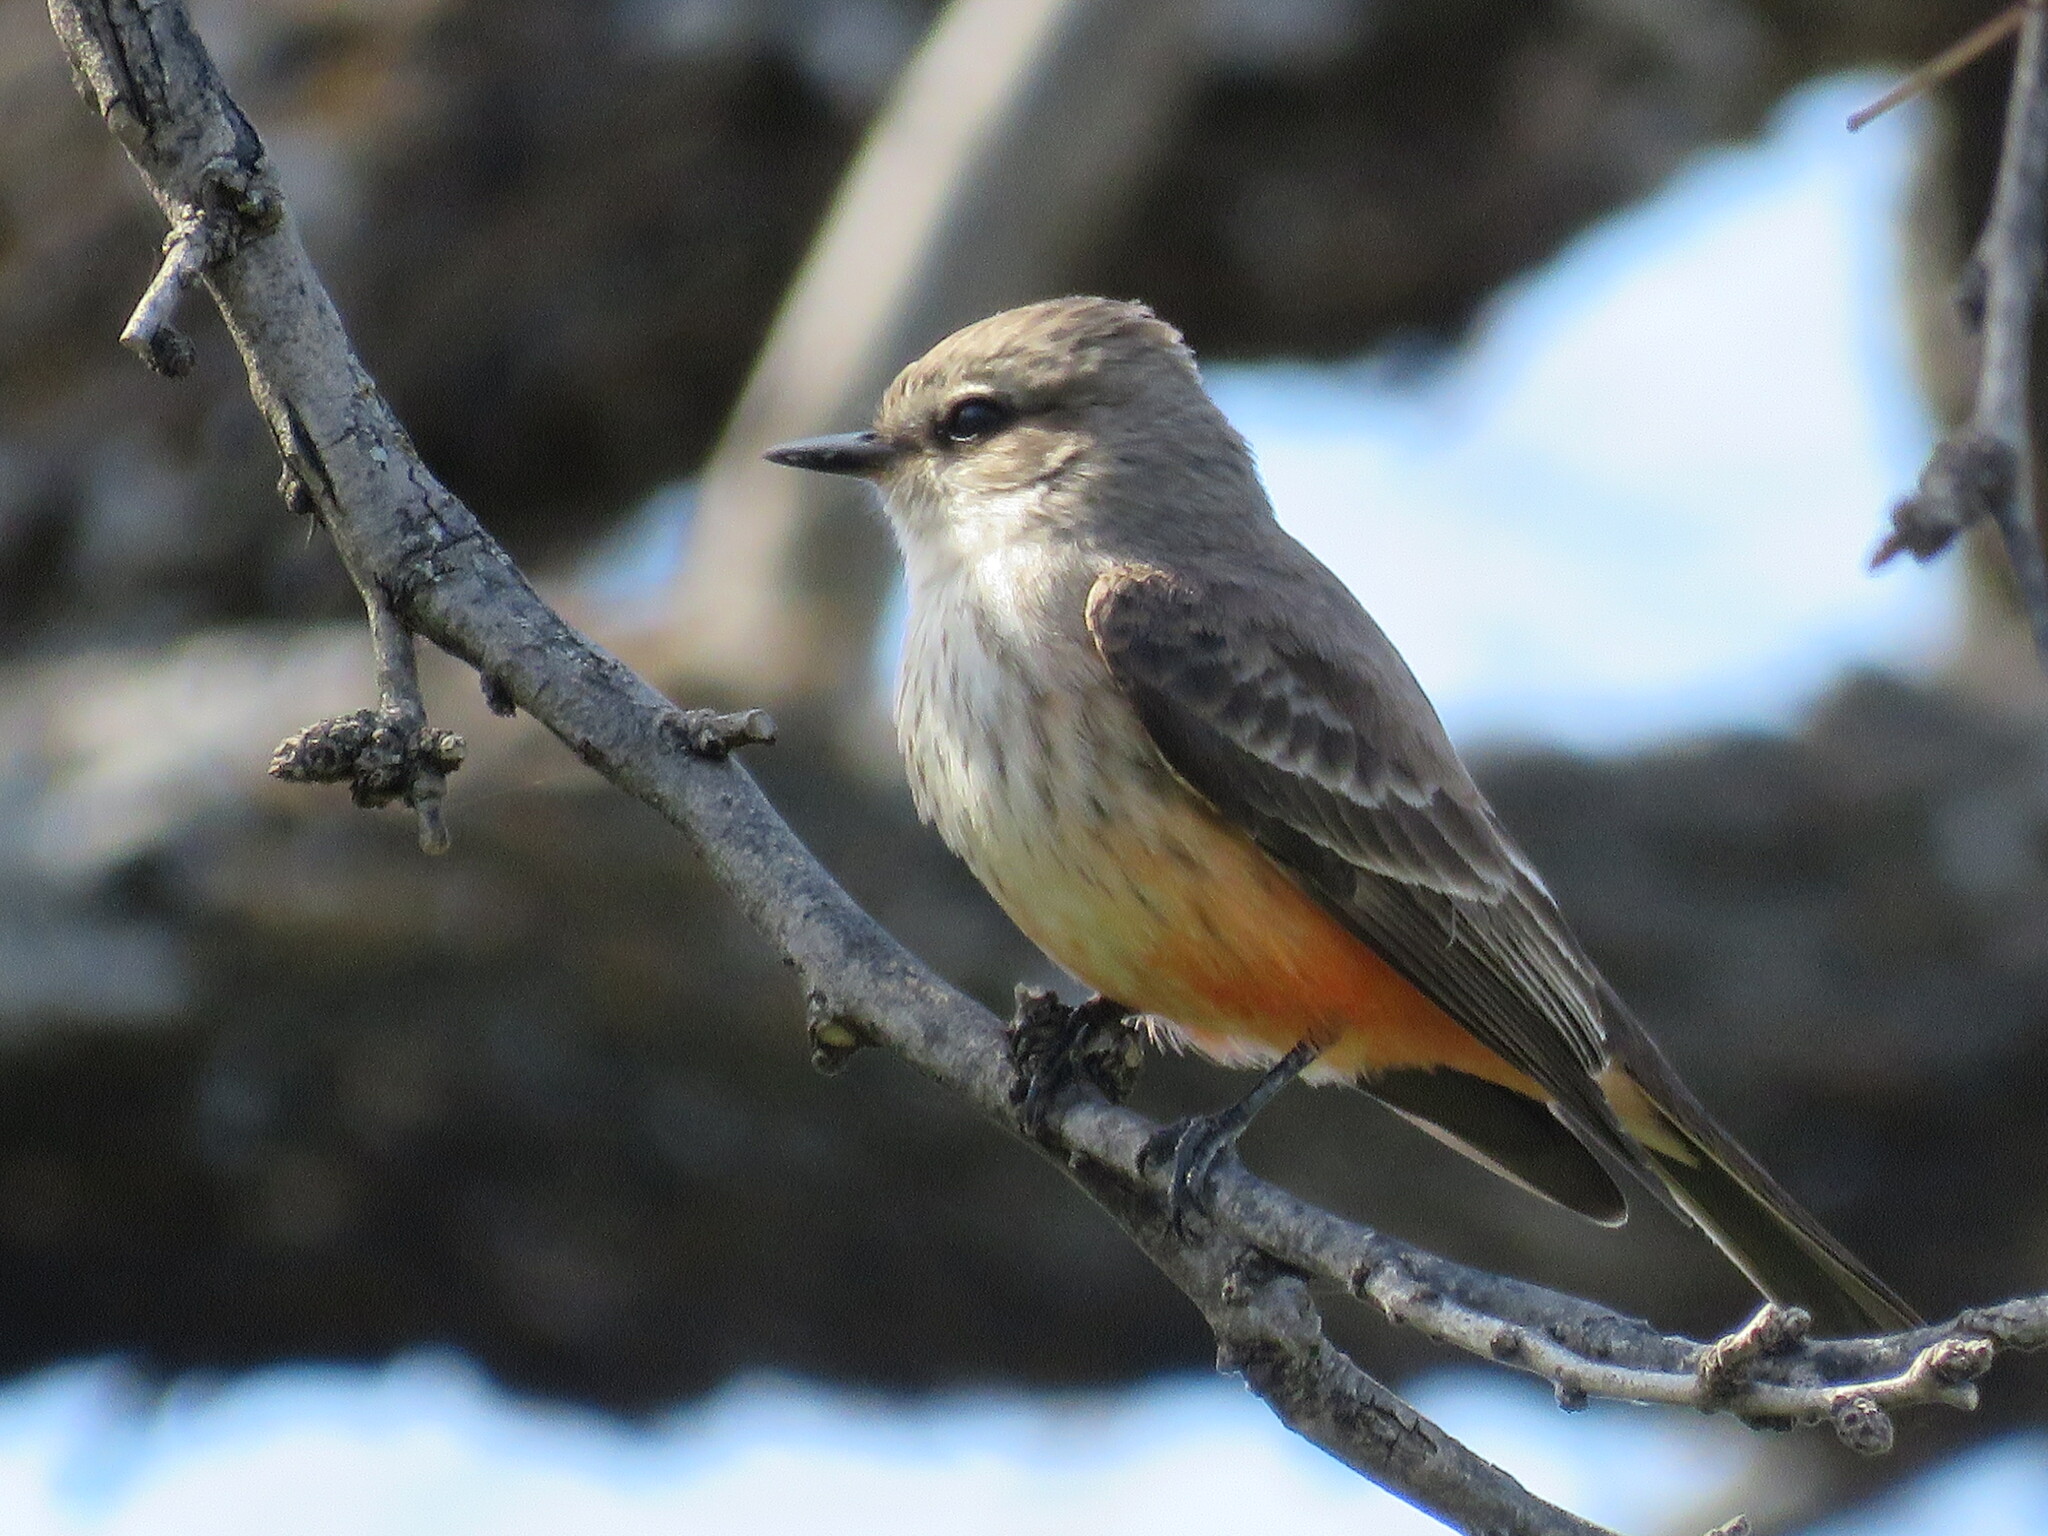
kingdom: Animalia
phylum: Chordata
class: Aves
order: Passeriformes
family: Tyrannidae
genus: Pyrocephalus
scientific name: Pyrocephalus rubinus
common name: Vermilion flycatcher
